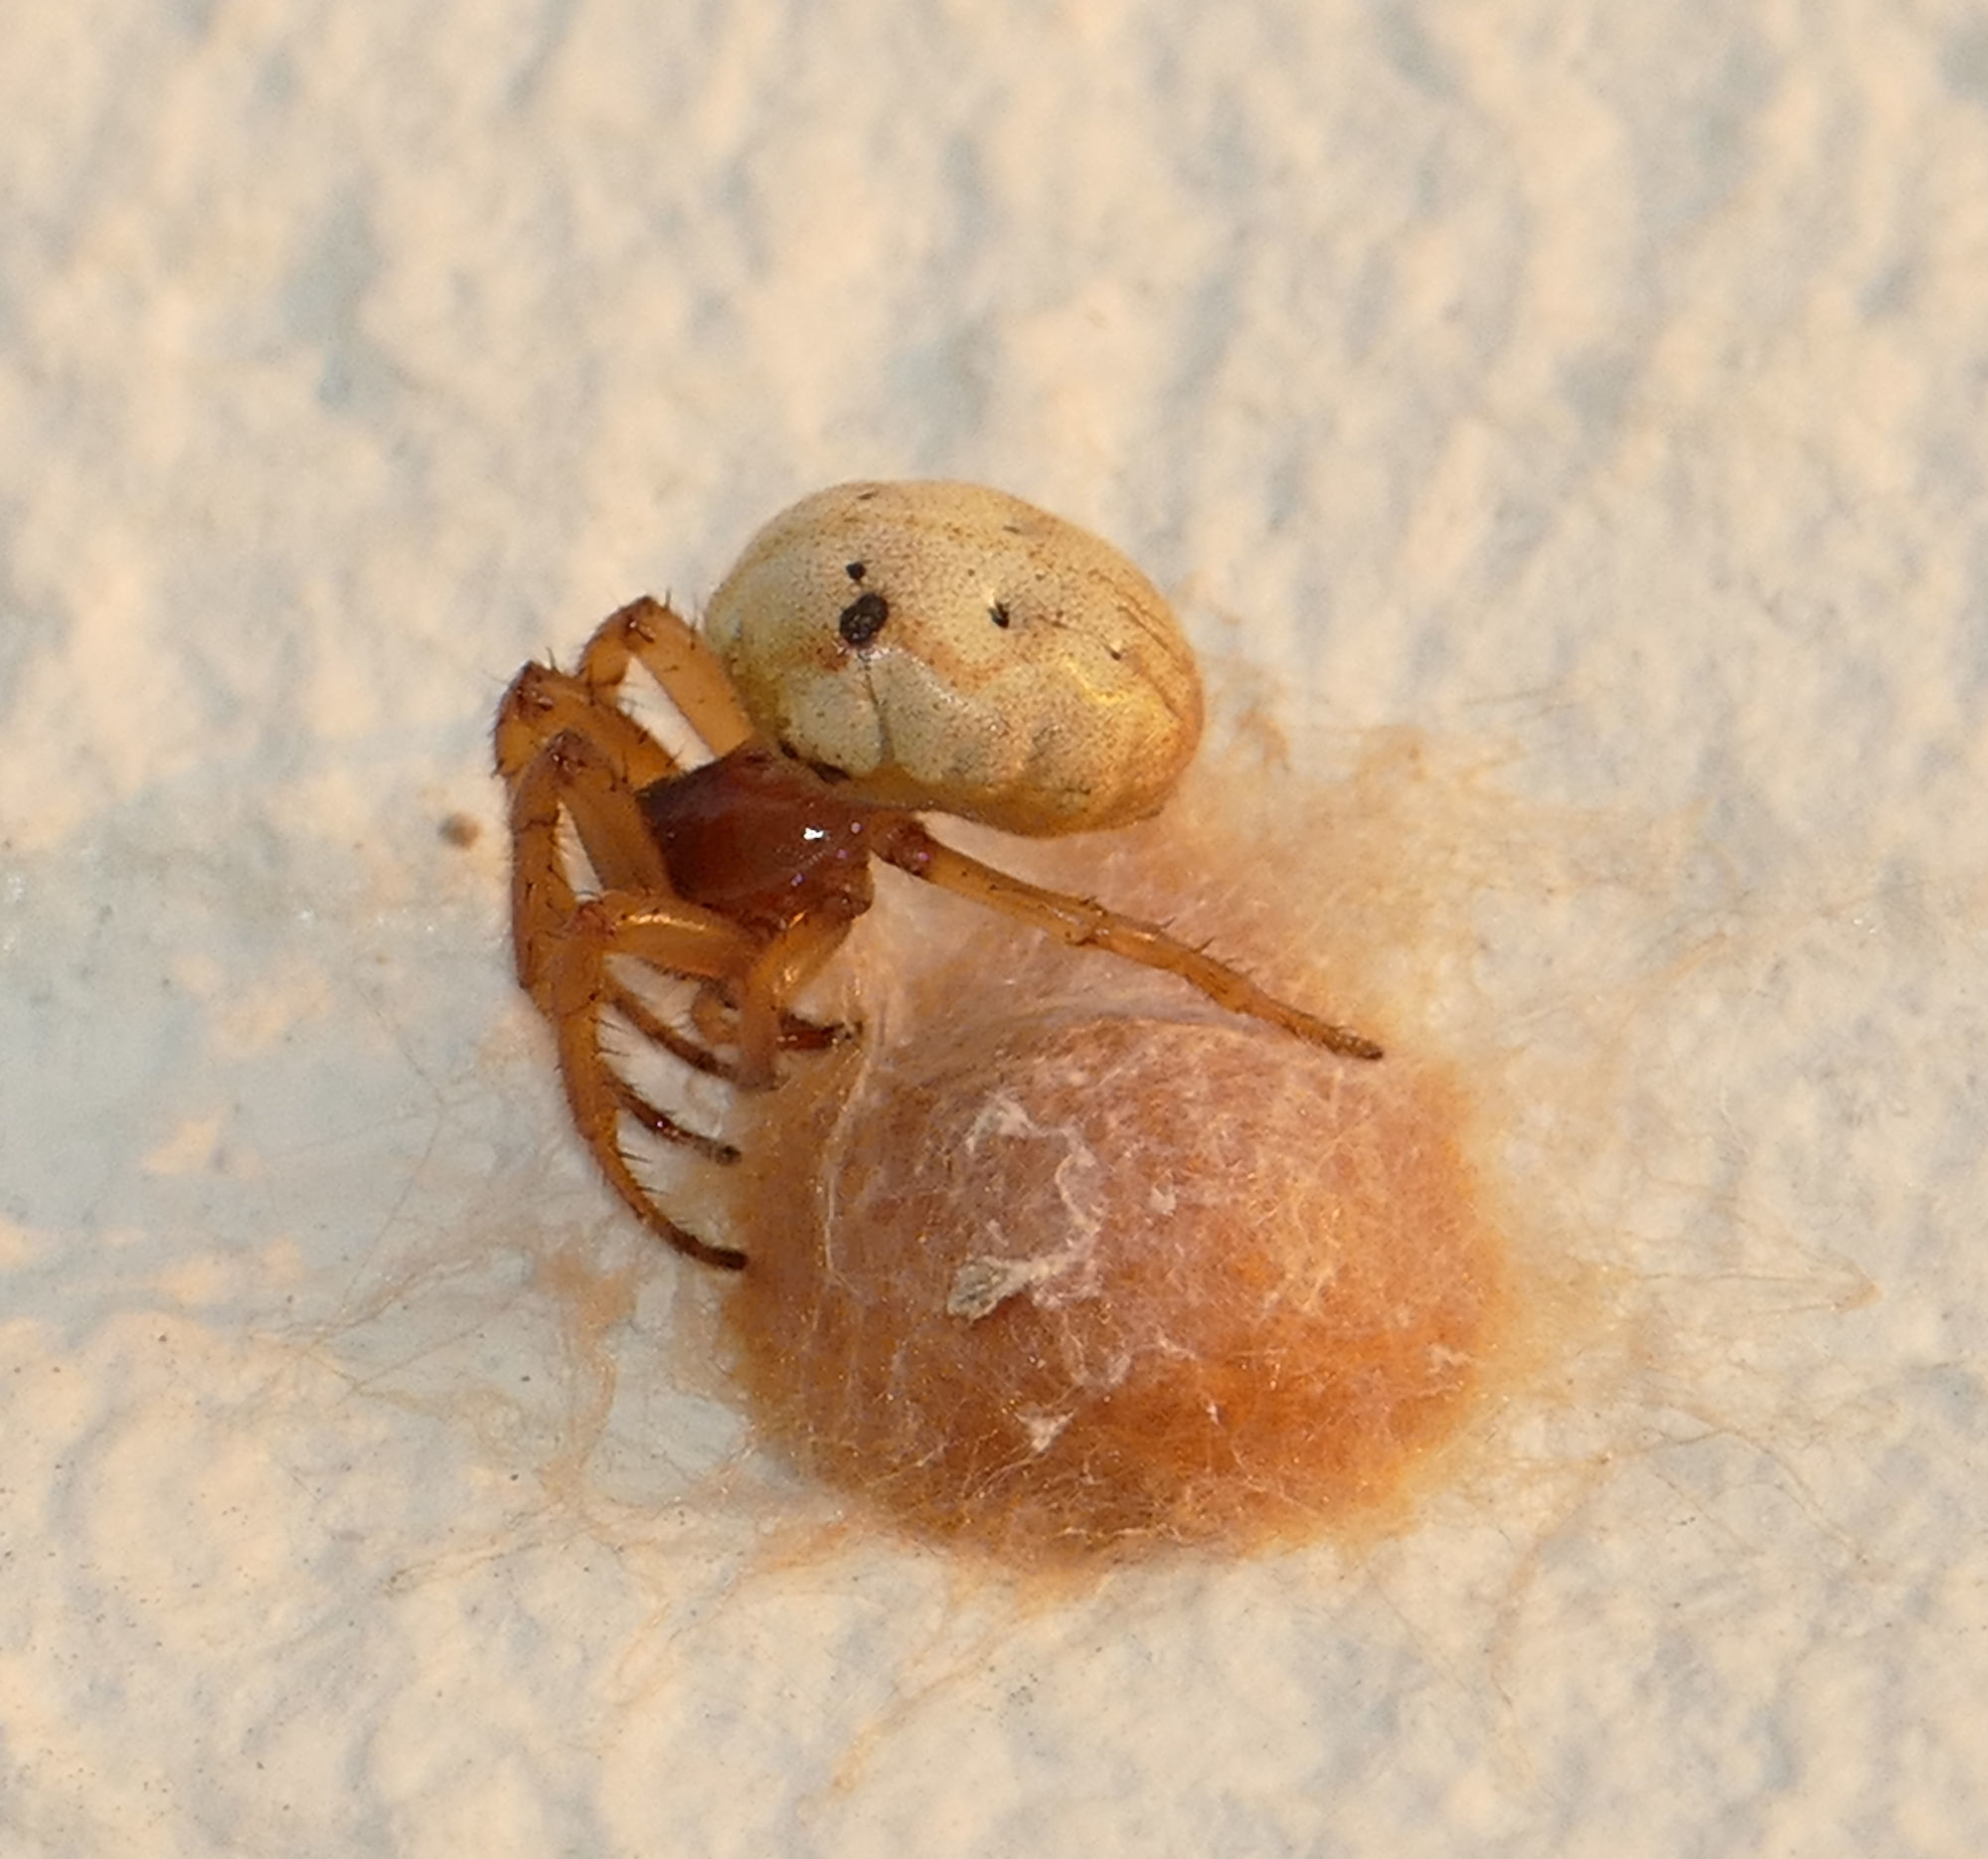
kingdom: Animalia
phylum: Arthropoda
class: Arachnida
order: Araneae
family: Araneidae
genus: Metazygia
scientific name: Metazygia zilloides
